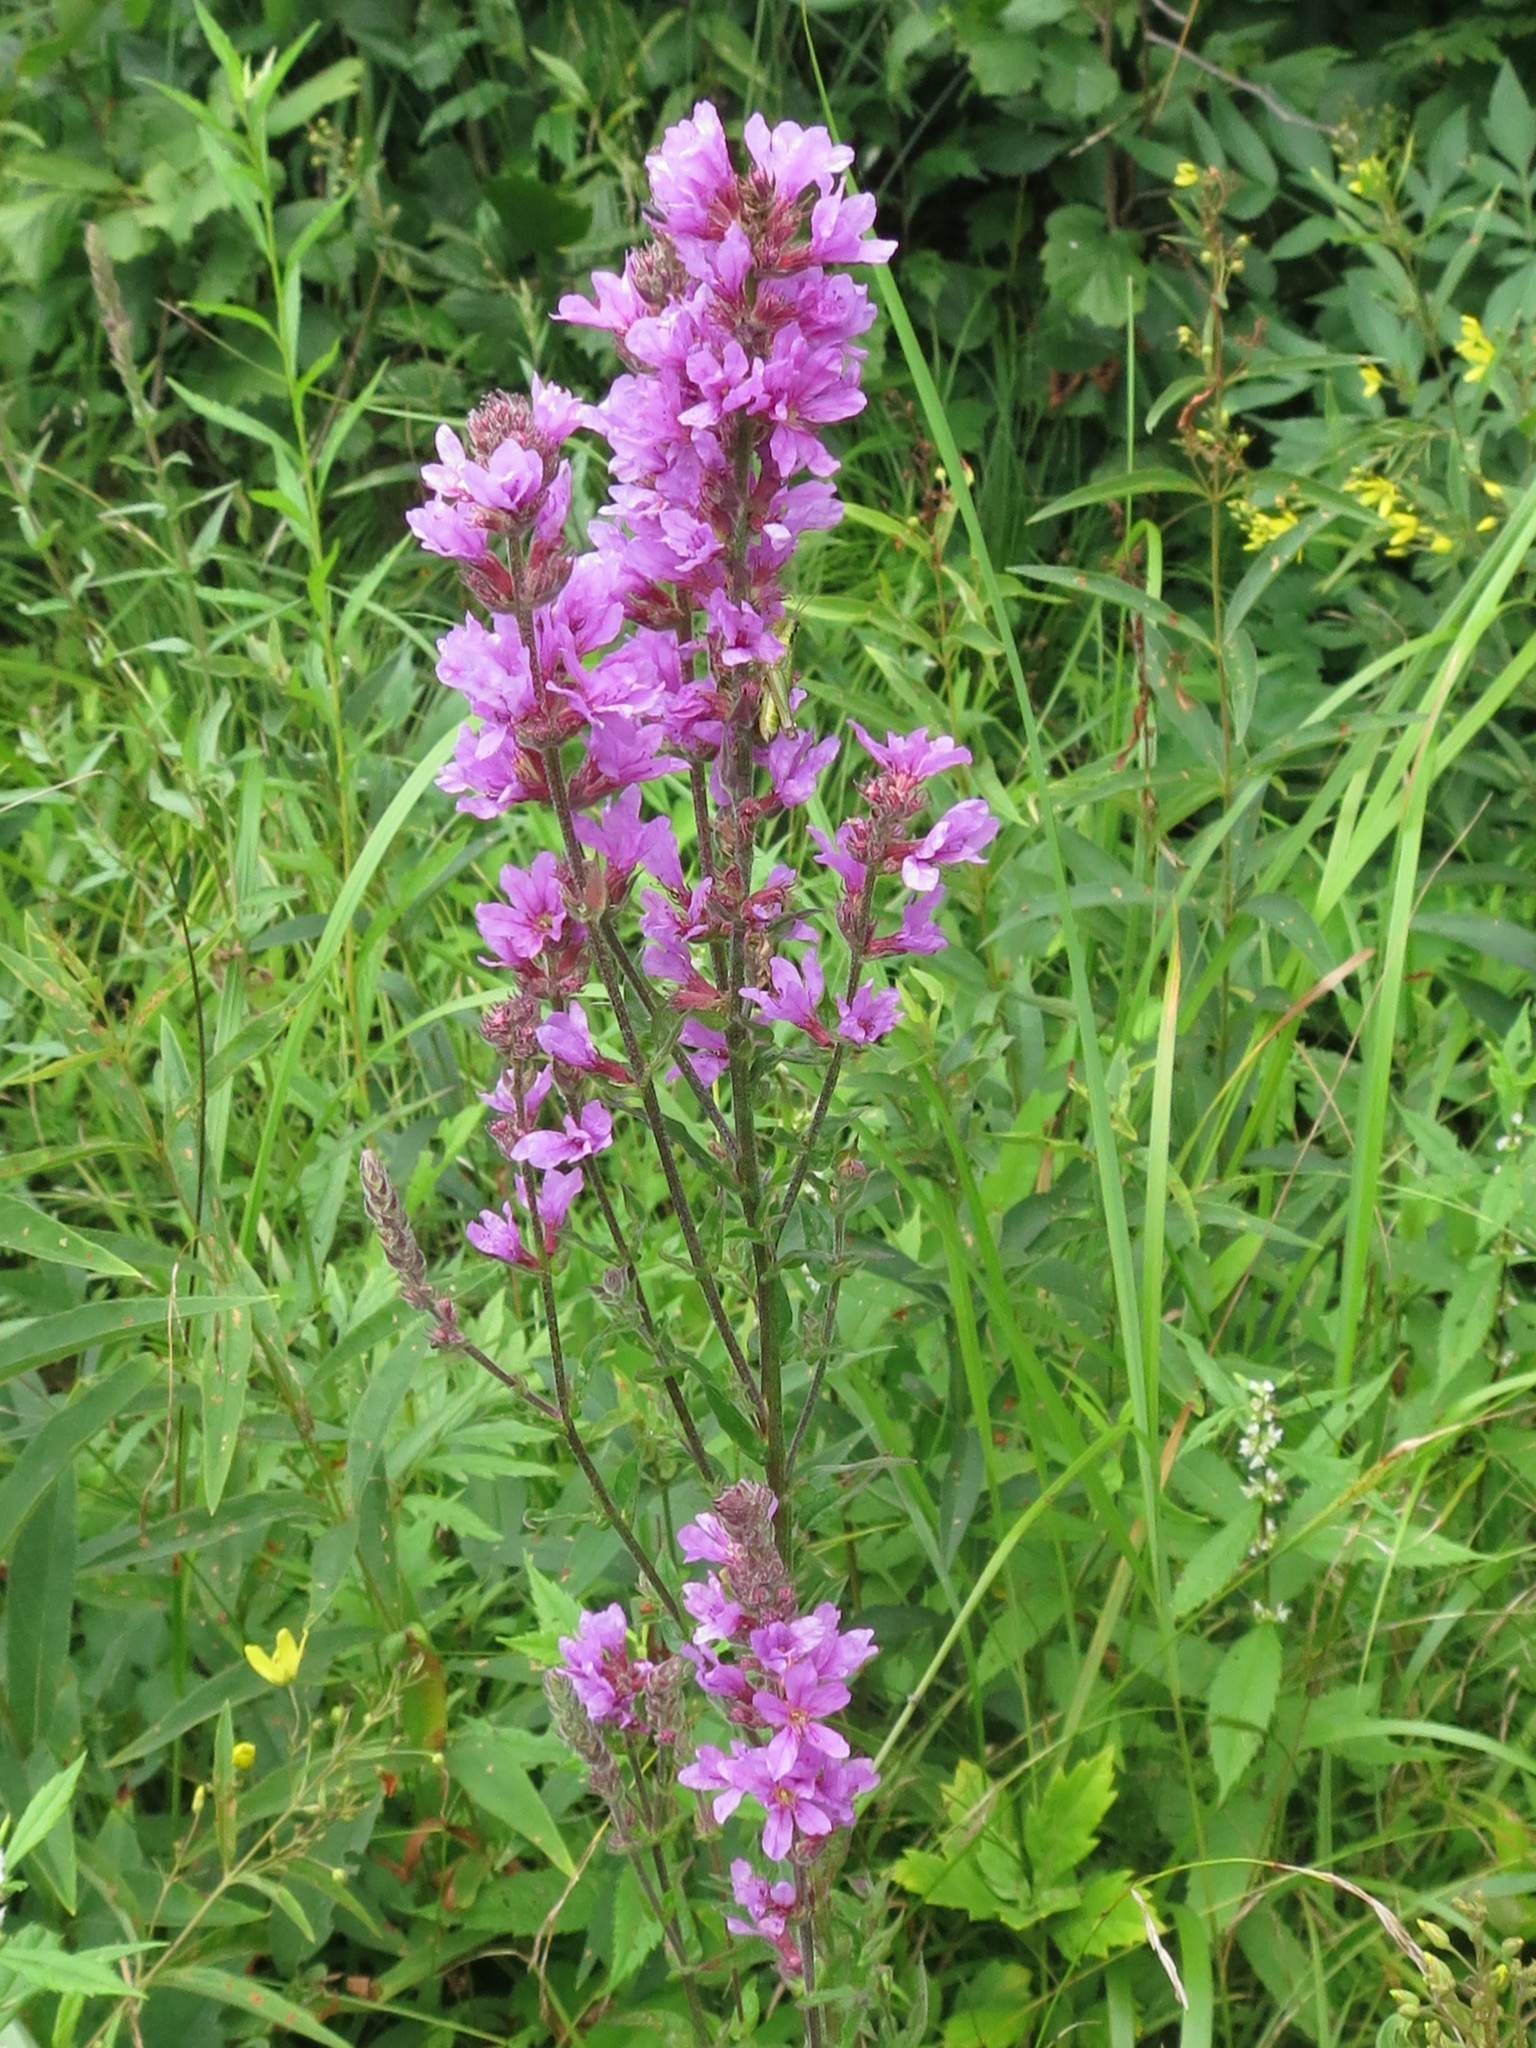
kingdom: Plantae
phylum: Tracheophyta
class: Magnoliopsida
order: Myrtales
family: Lythraceae
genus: Lythrum
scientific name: Lythrum salicaria
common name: Purple loosestrife
